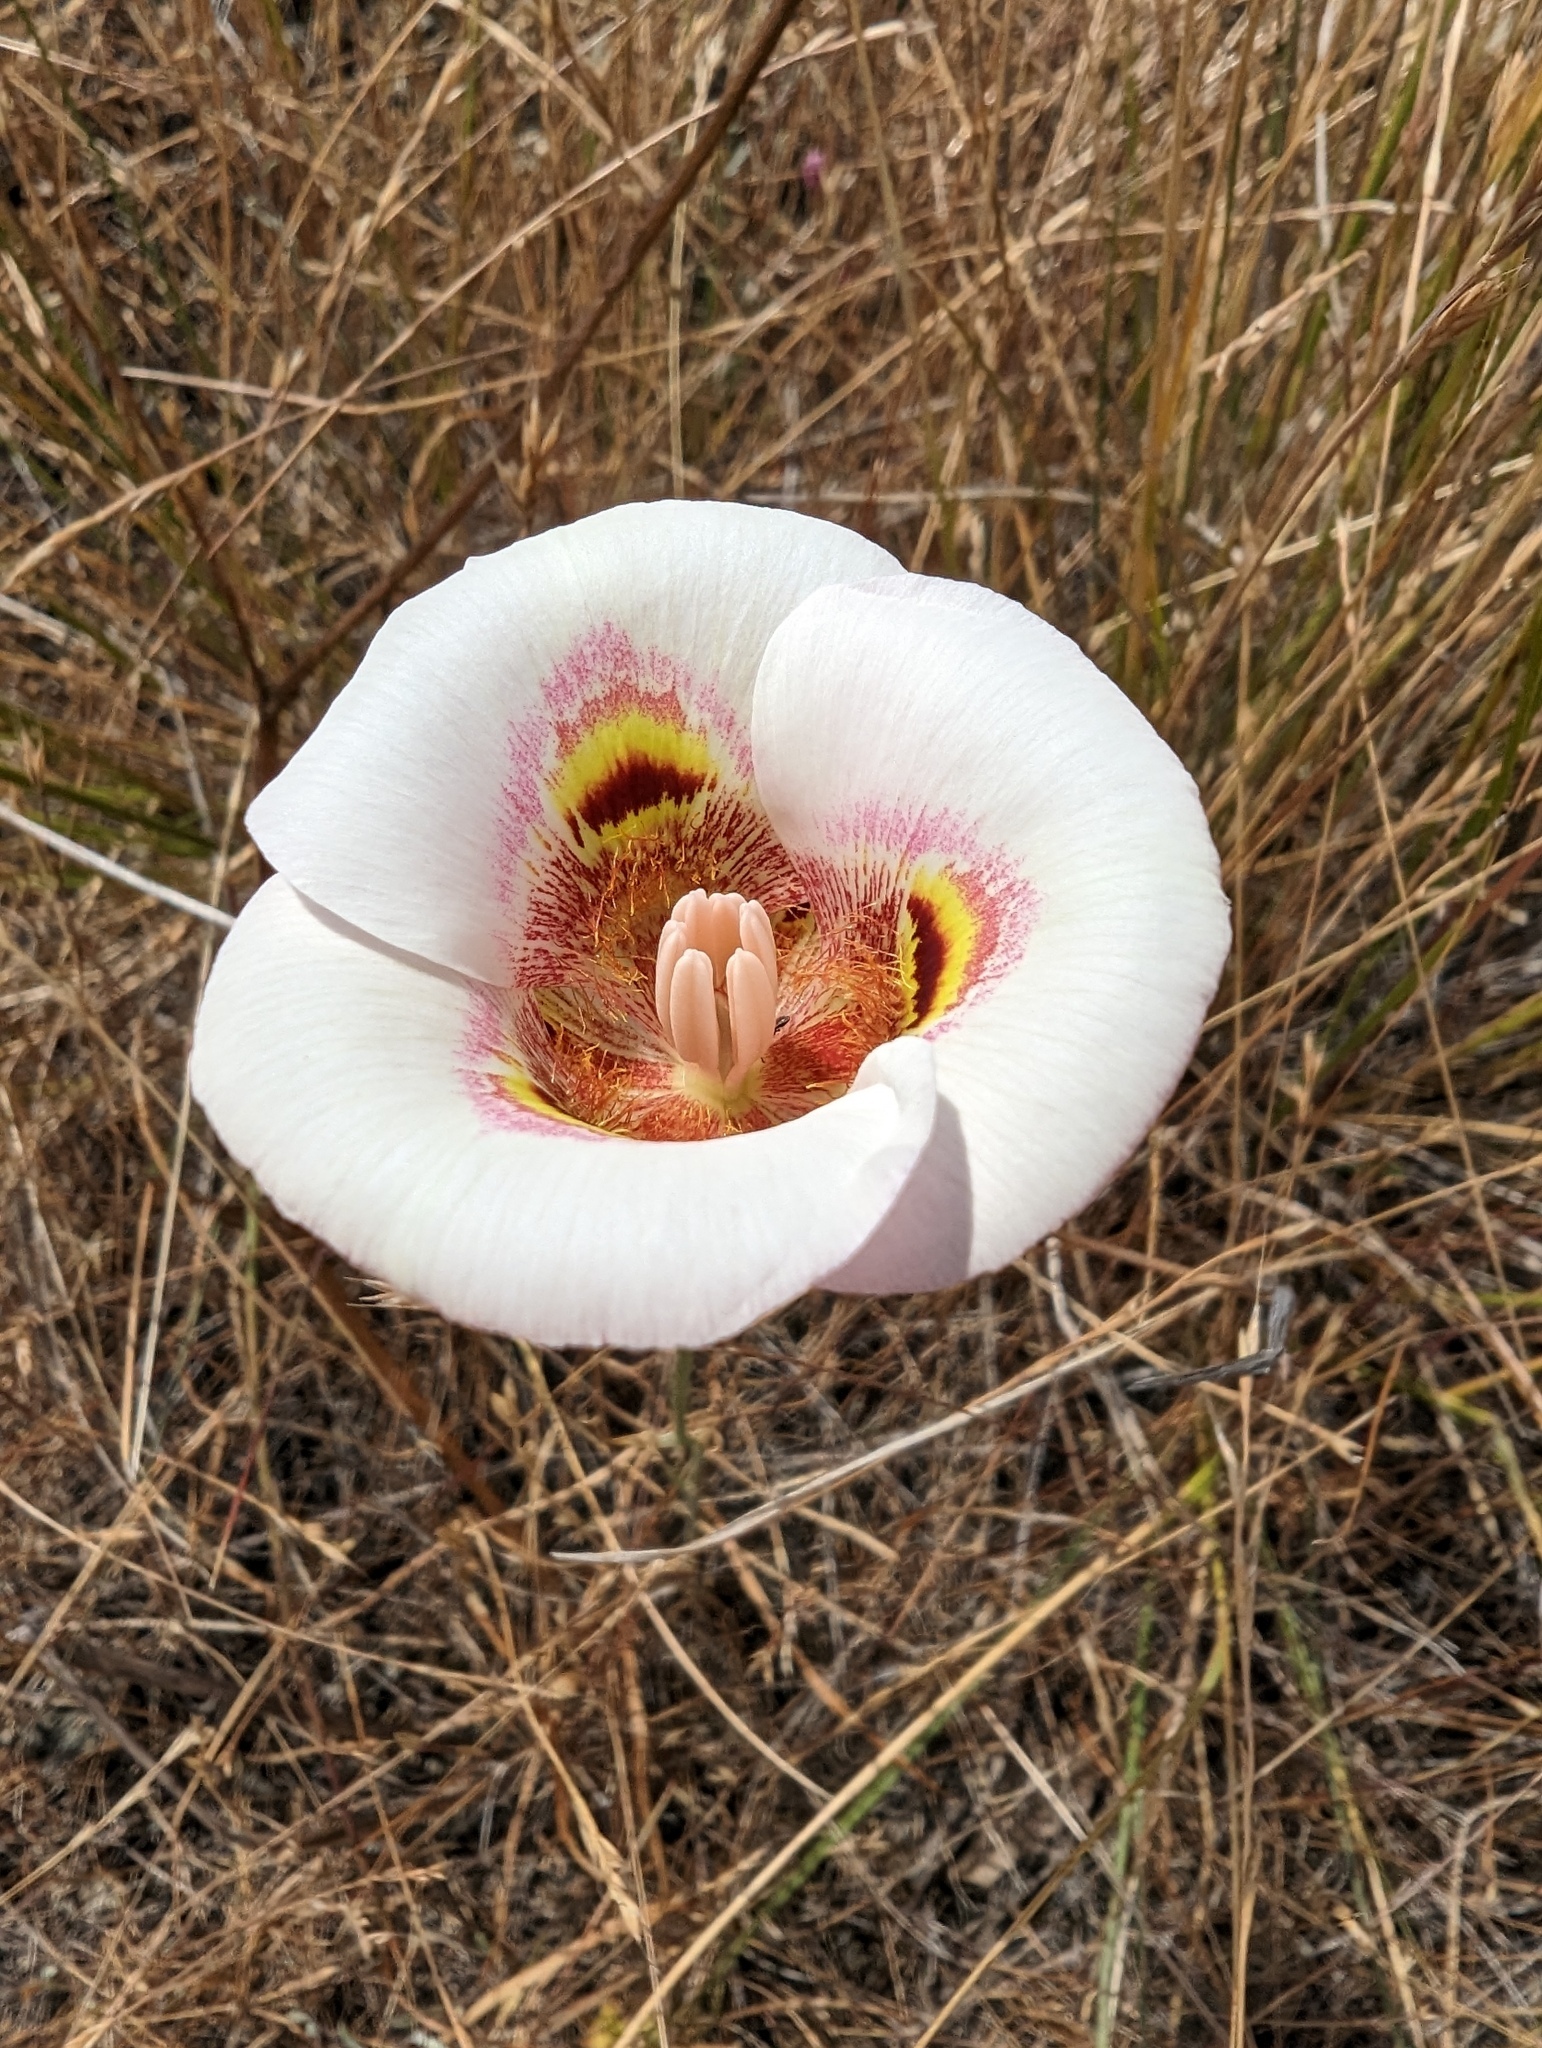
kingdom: Plantae
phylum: Tracheophyta
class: Liliopsida
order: Liliales
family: Liliaceae
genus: Calochortus
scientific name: Calochortus argillosus
